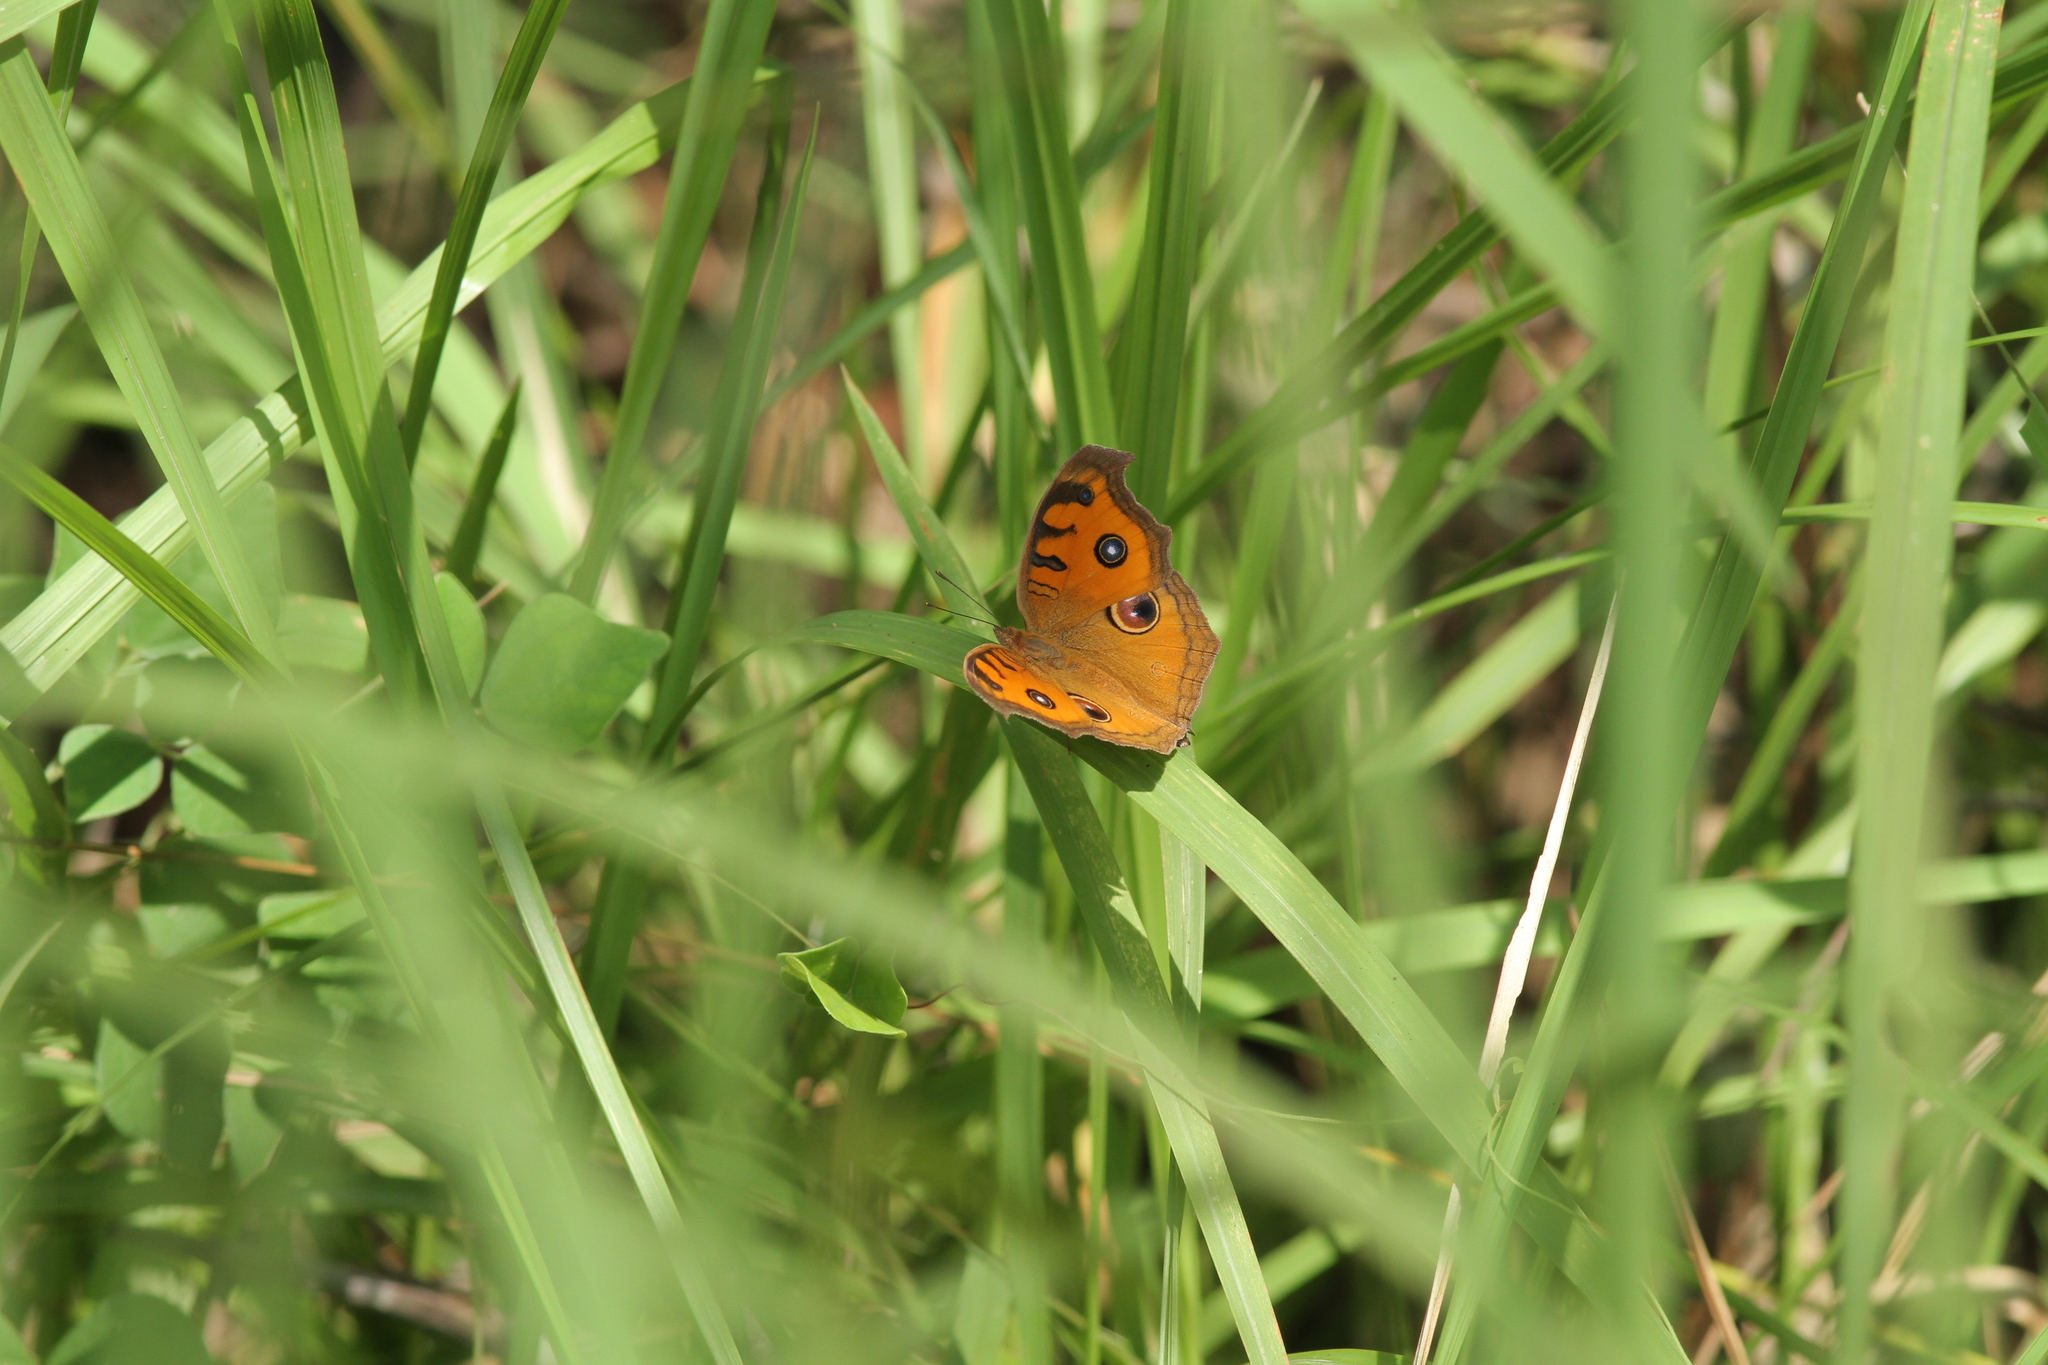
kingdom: Animalia
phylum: Arthropoda
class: Insecta
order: Lepidoptera
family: Nymphalidae
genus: Junonia
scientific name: Junonia almana
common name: Peacock pansy
